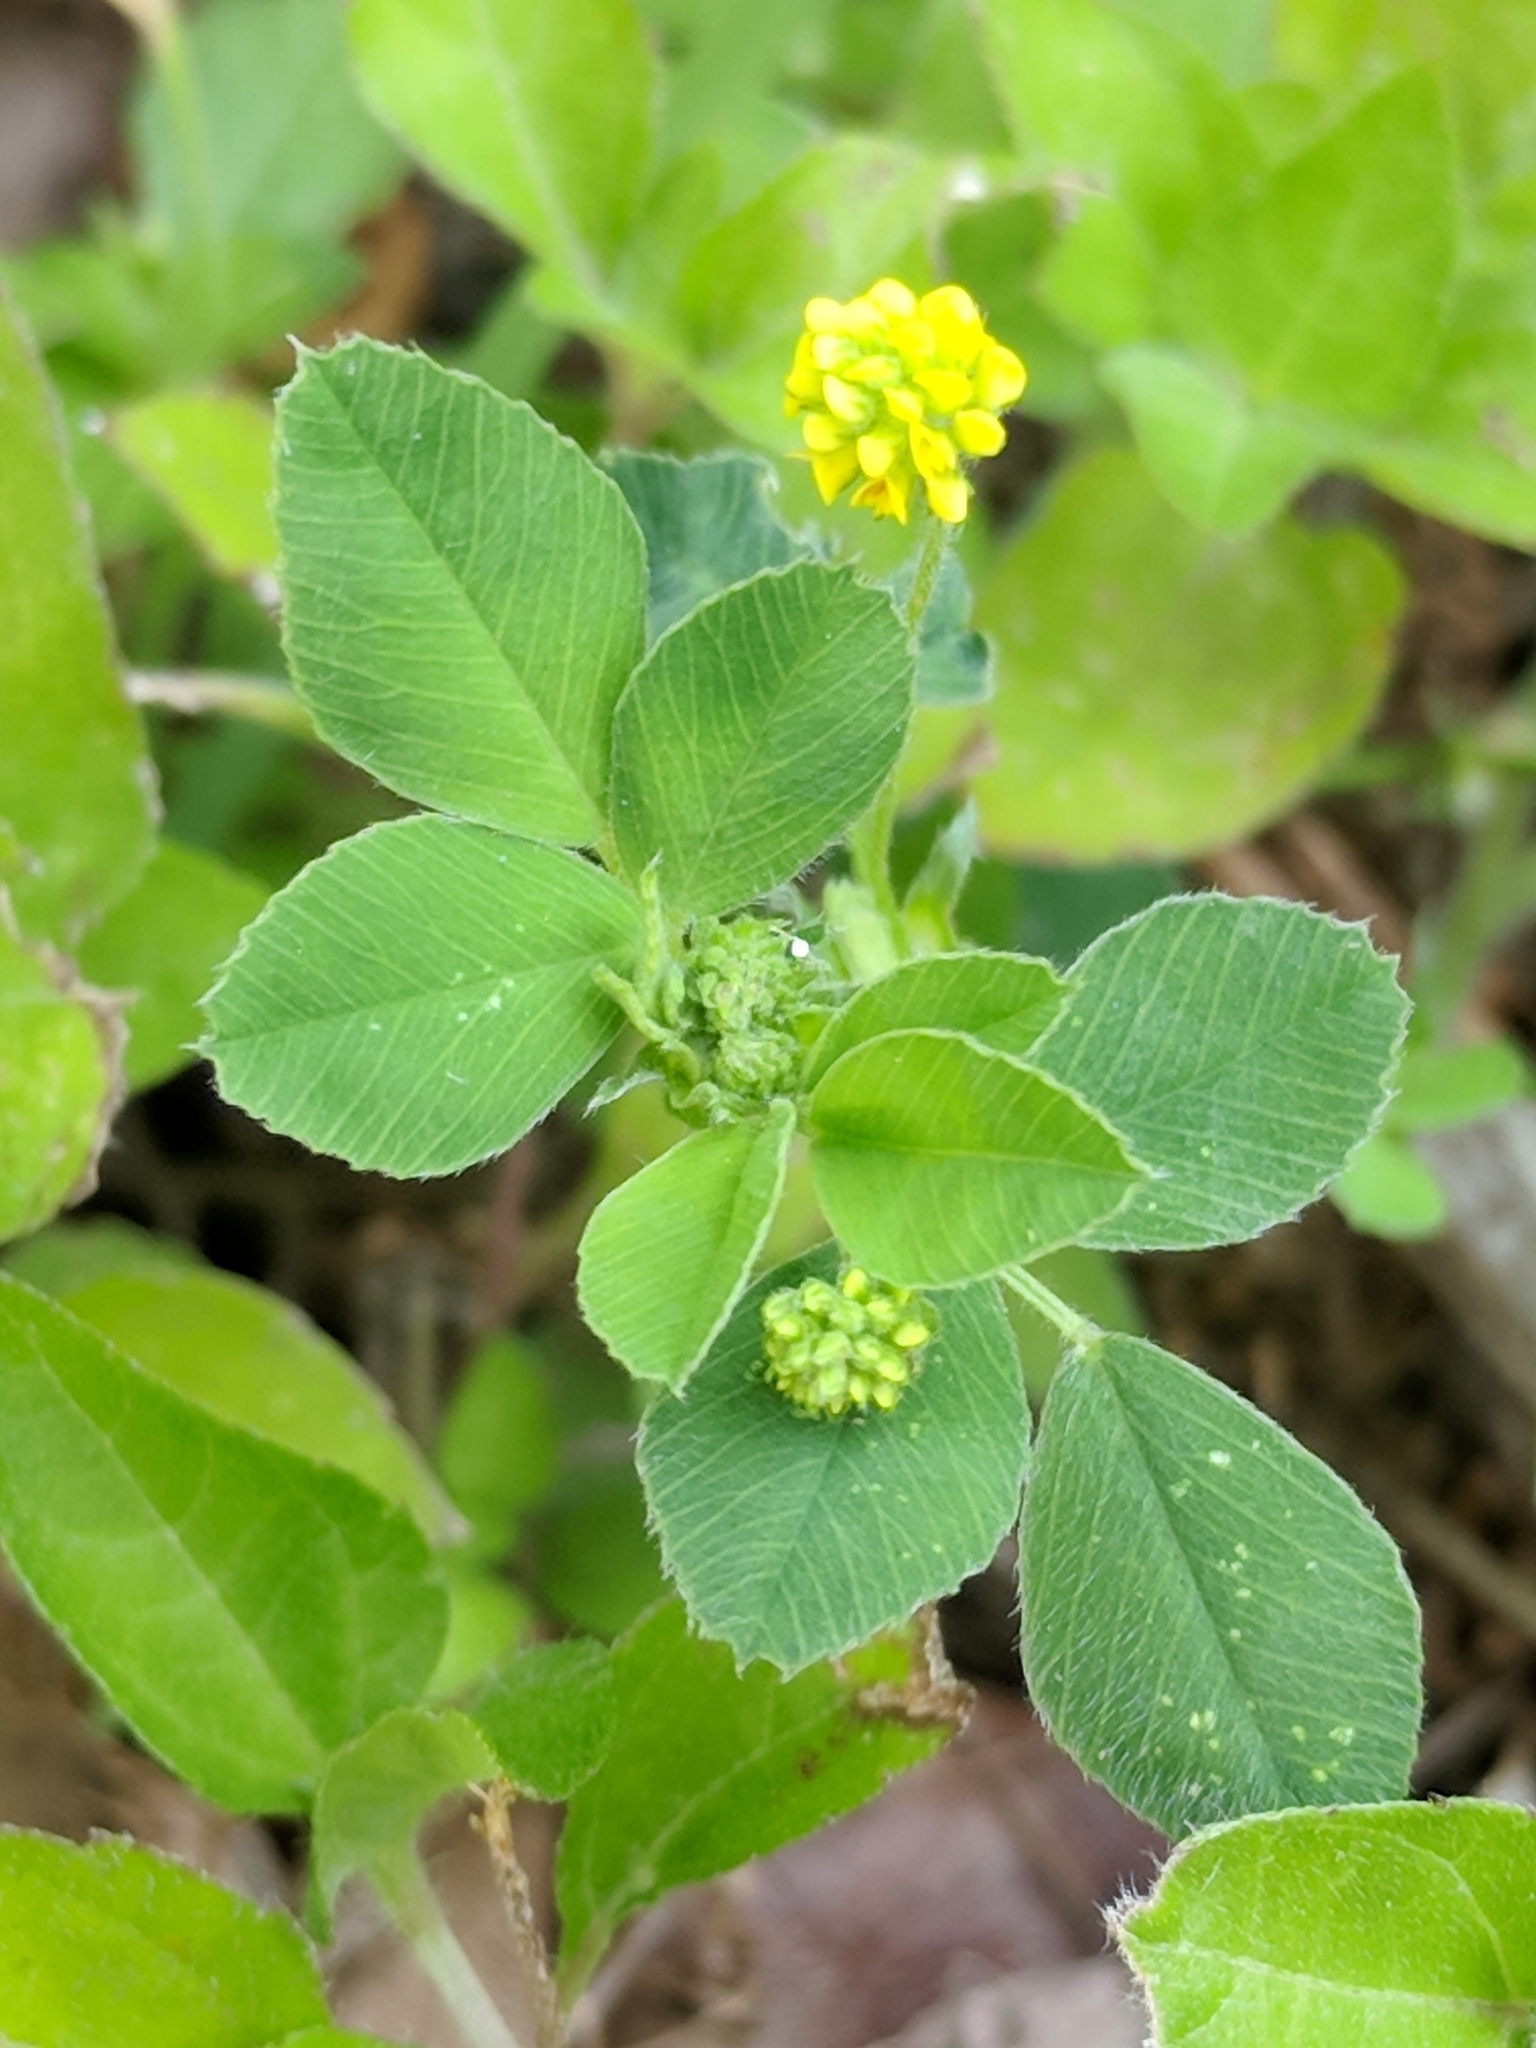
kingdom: Plantae
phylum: Tracheophyta
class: Magnoliopsida
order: Fabales
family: Fabaceae
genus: Medicago
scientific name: Medicago lupulina
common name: Black medick
